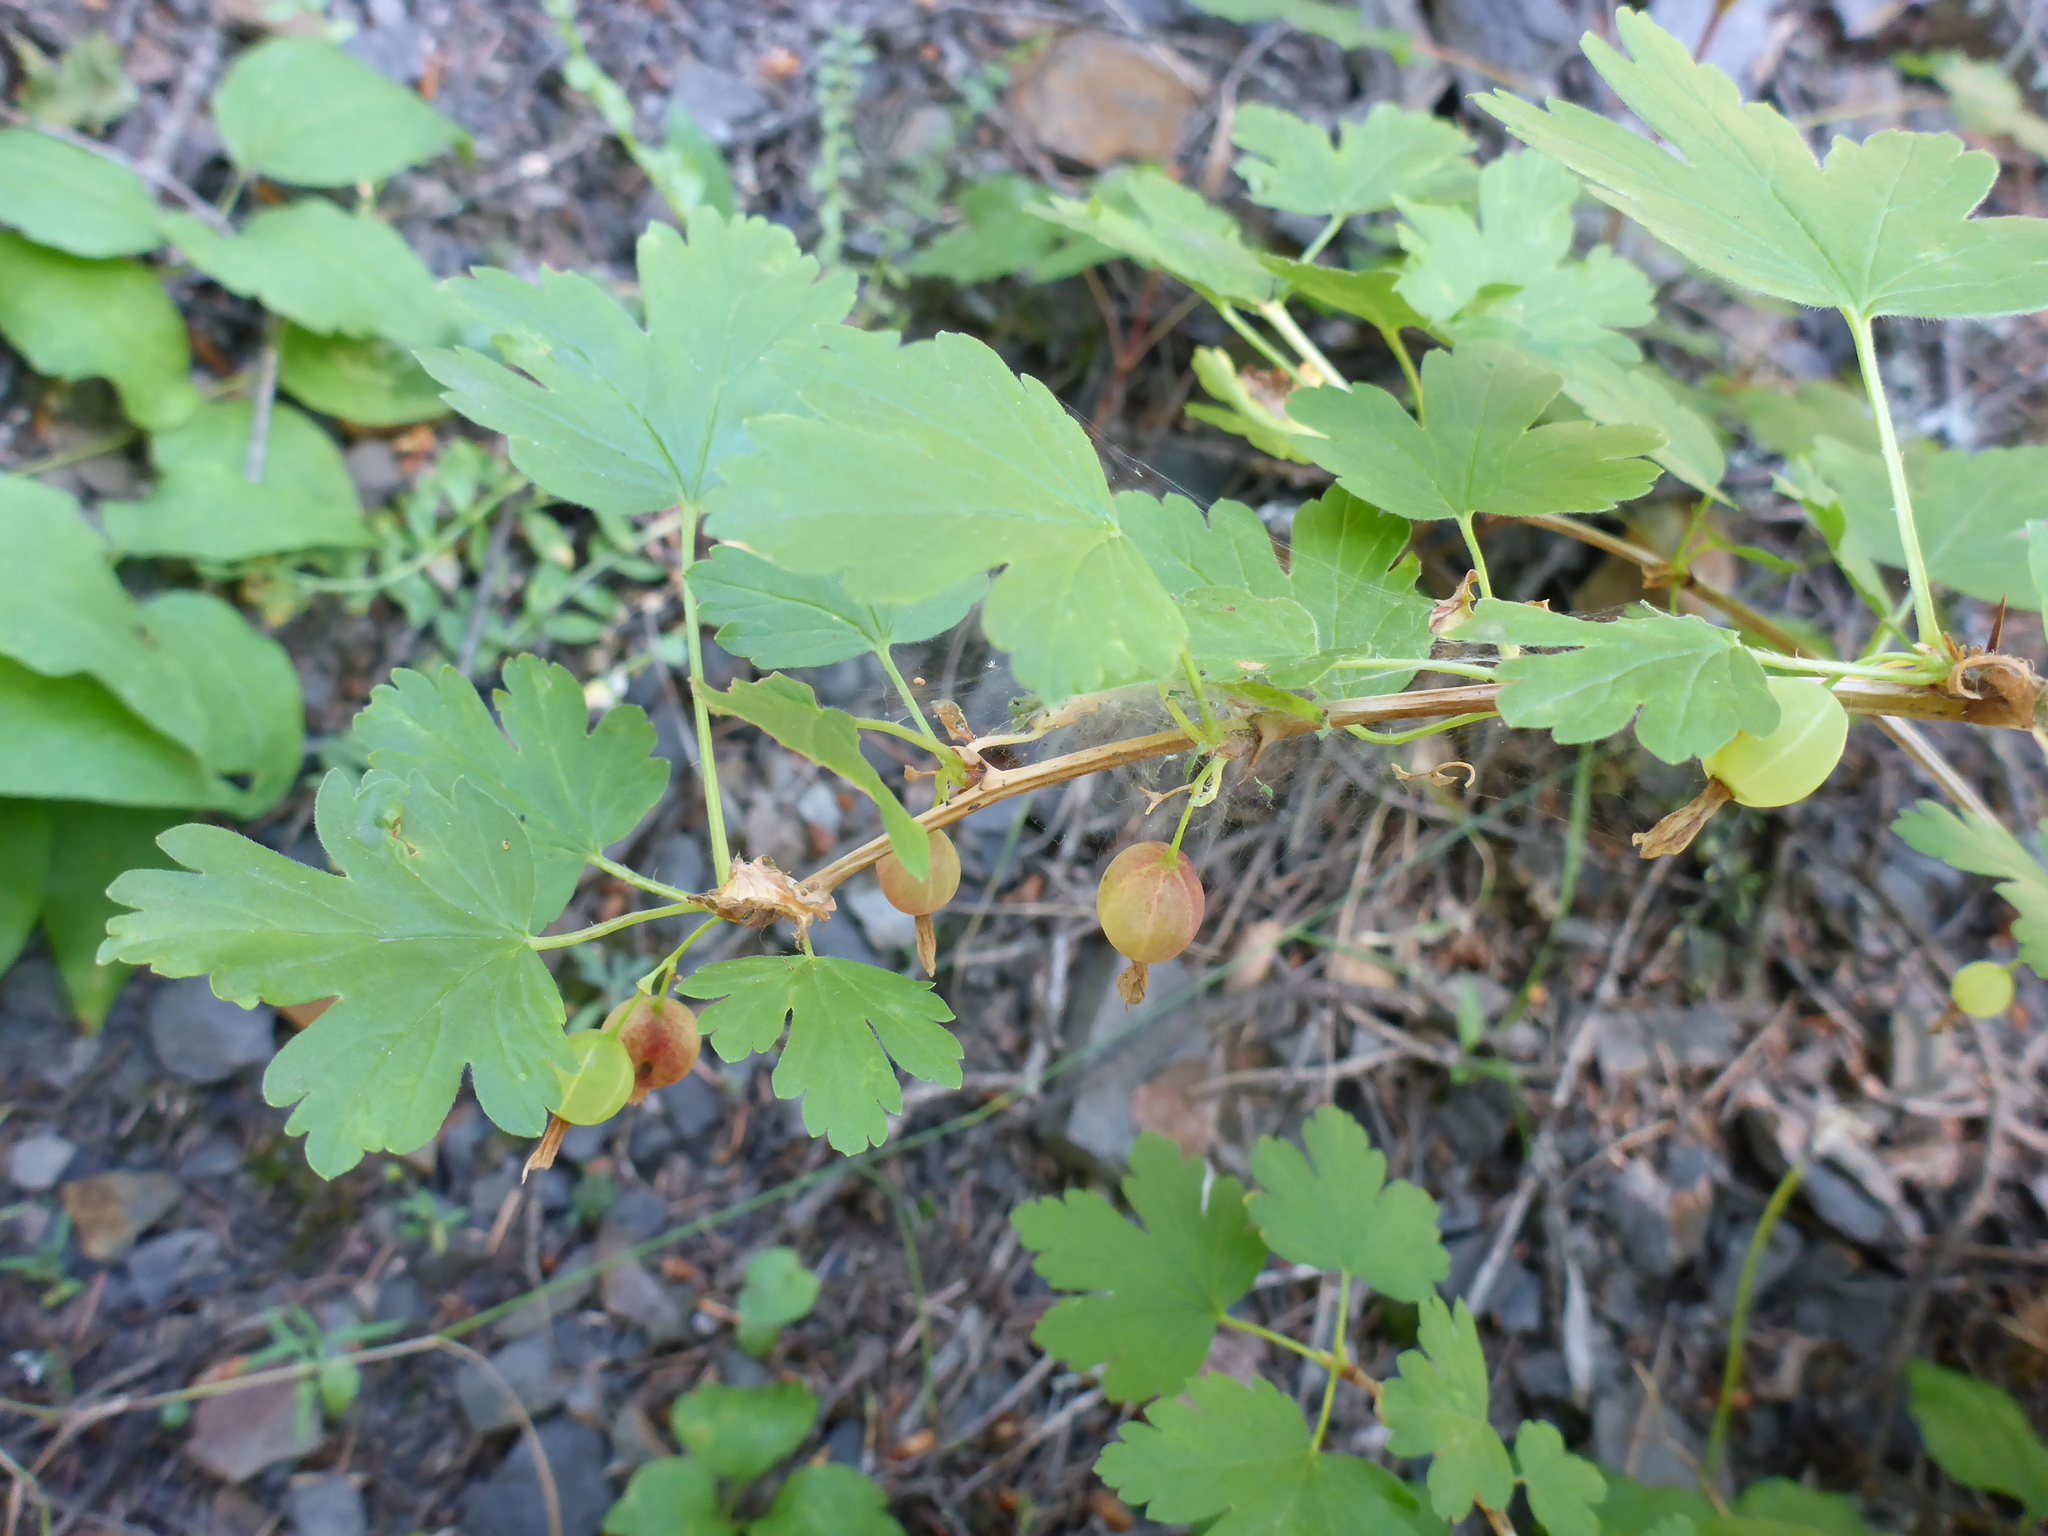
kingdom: Plantae
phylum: Tracheophyta
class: Magnoliopsida
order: Saxifragales
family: Grossulariaceae
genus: Ribes
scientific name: Ribes aureum
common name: Golden currant
